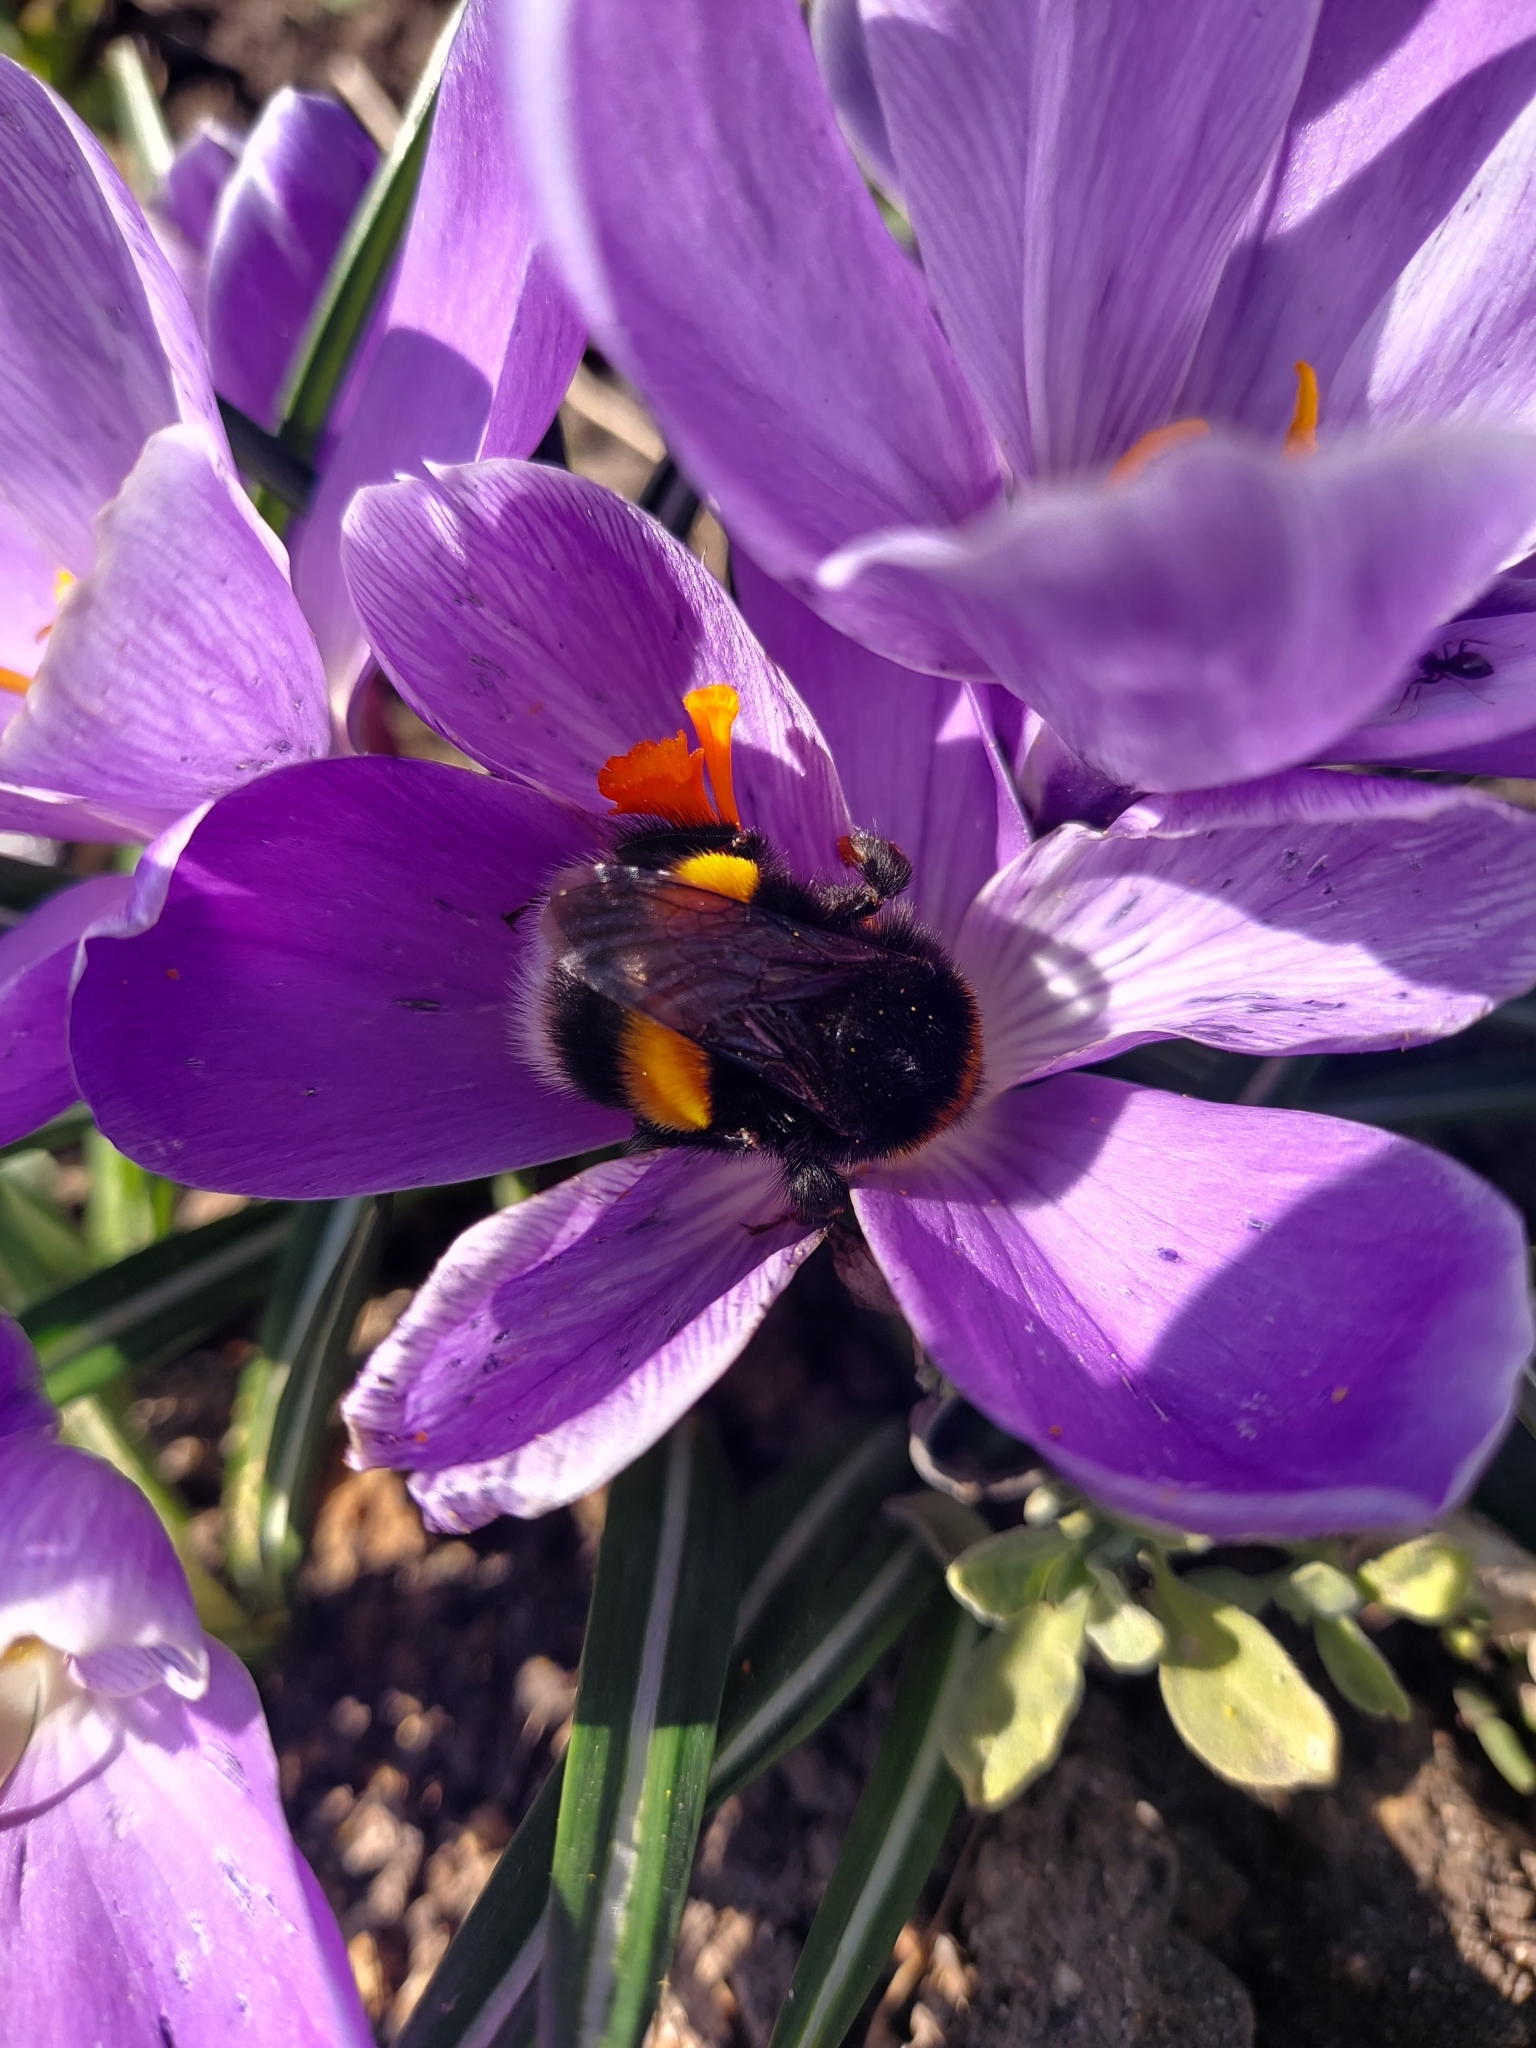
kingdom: Animalia
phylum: Arthropoda
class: Insecta
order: Hymenoptera
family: Apidae
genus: Bombus
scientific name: Bombus
